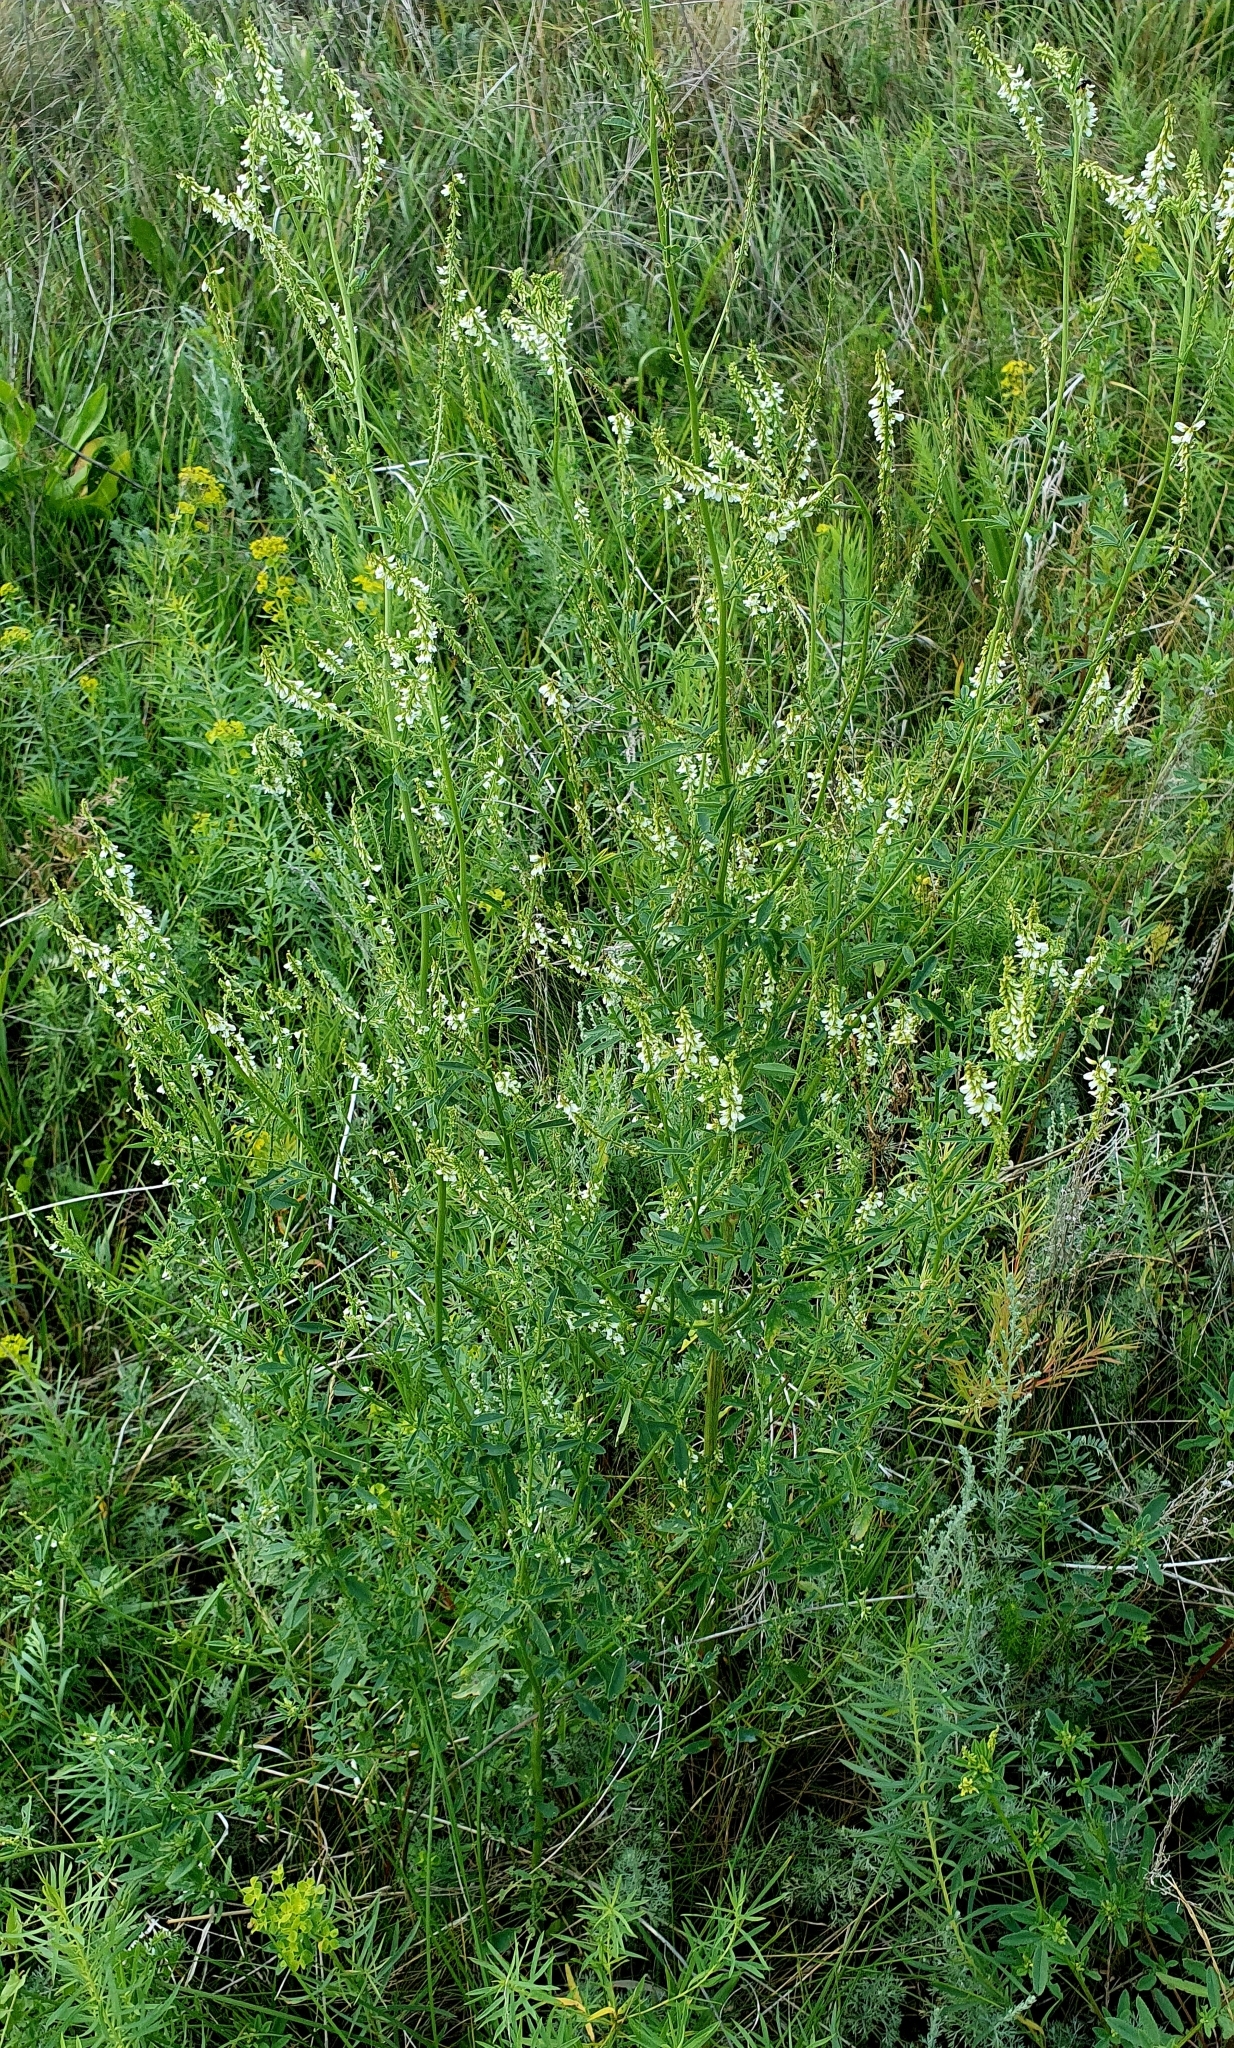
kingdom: Plantae
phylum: Tracheophyta
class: Magnoliopsida
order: Fabales
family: Fabaceae
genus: Melilotus
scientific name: Melilotus albus
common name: White melilot
